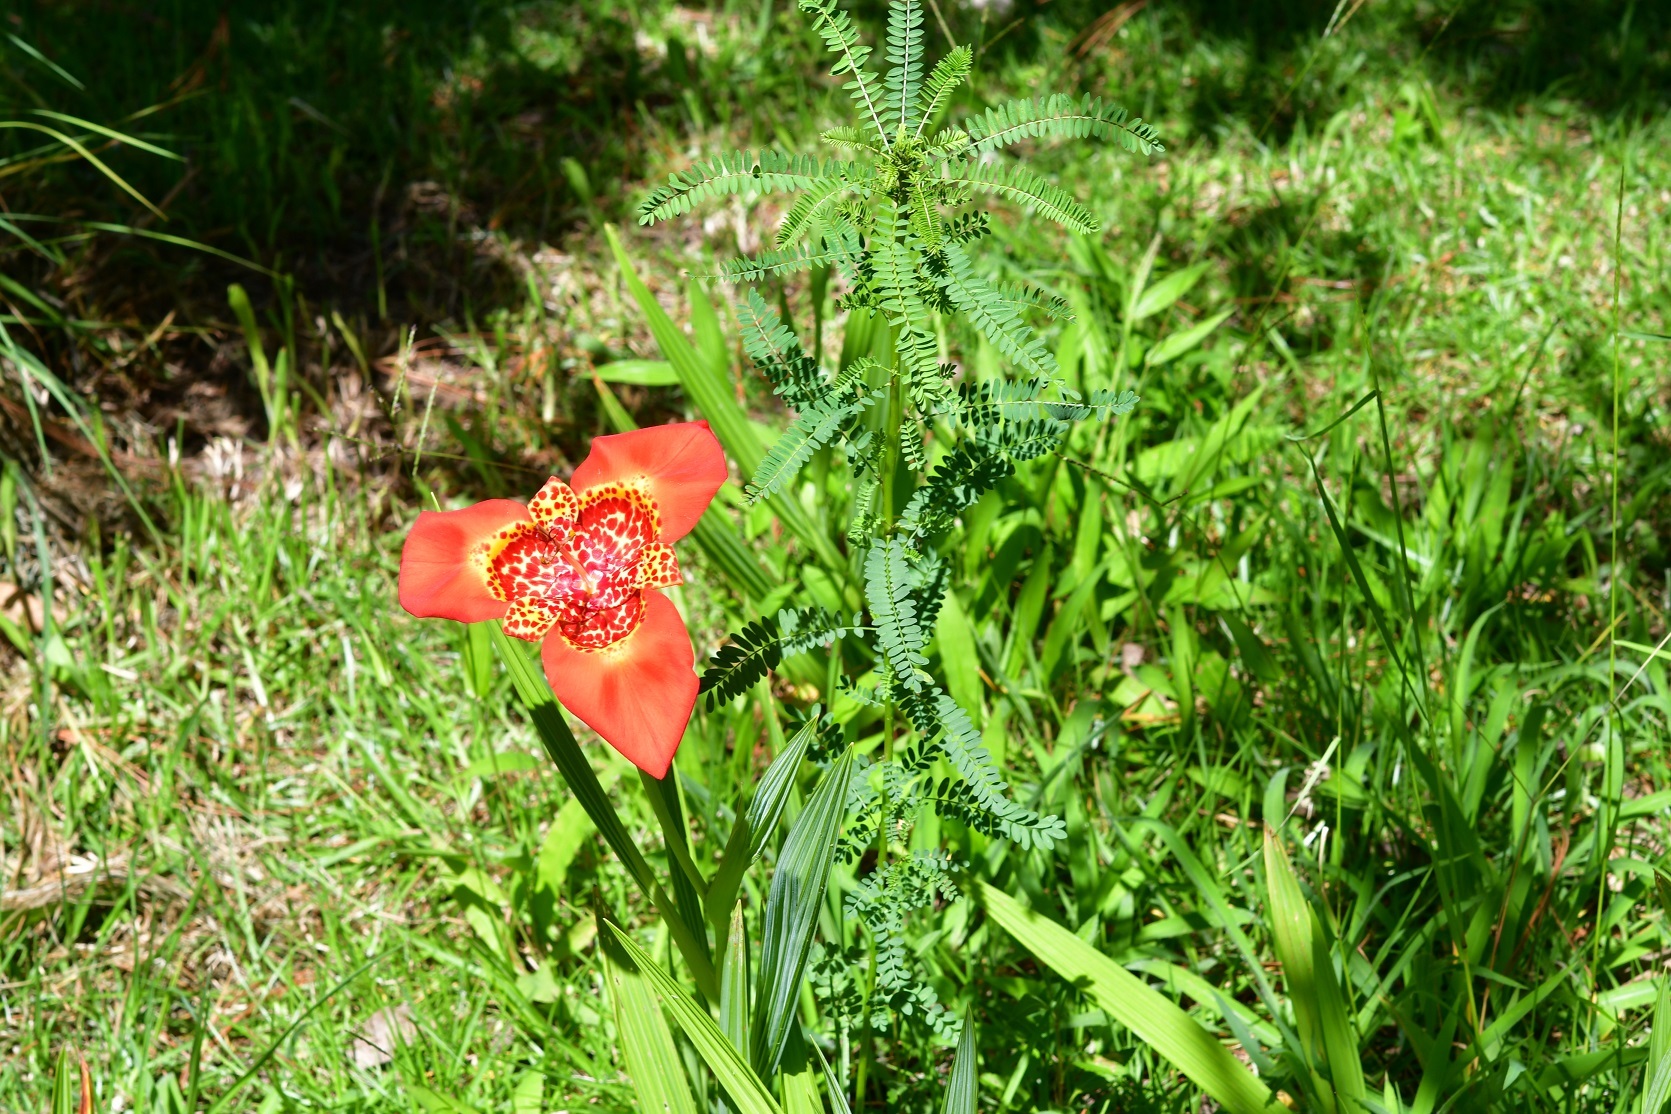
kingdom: Plantae
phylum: Tracheophyta
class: Liliopsida
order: Asparagales
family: Iridaceae
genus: Tigridia
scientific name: Tigridia pavonia
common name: Peacock-flower
